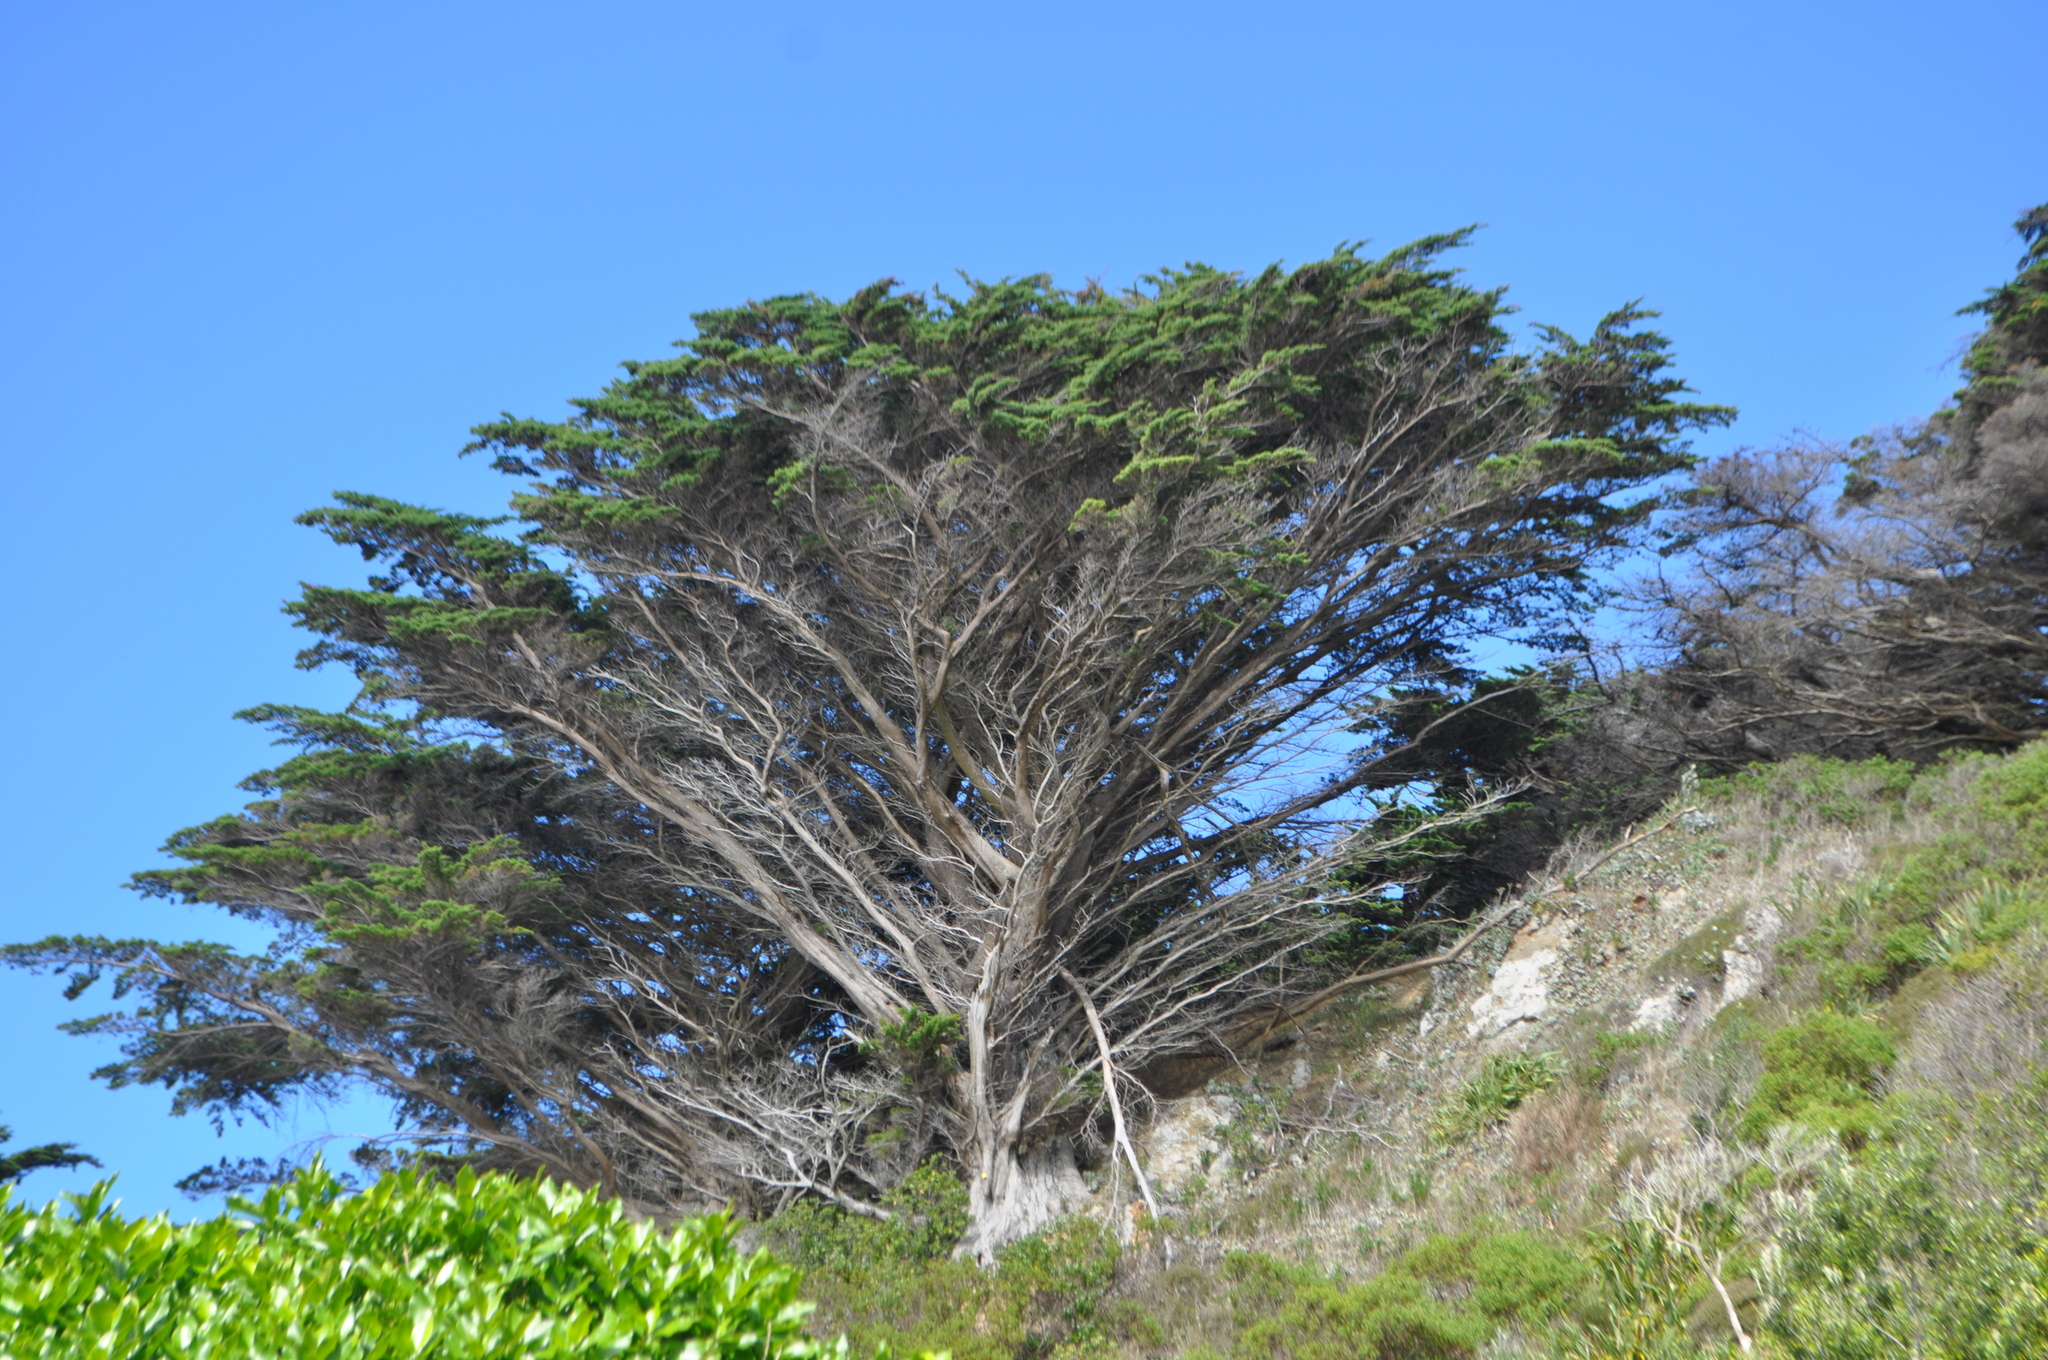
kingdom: Plantae
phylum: Tracheophyta
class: Pinopsida
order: Pinales
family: Cupressaceae
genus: Cupressus
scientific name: Cupressus macrocarpa
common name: Monterey cypress
